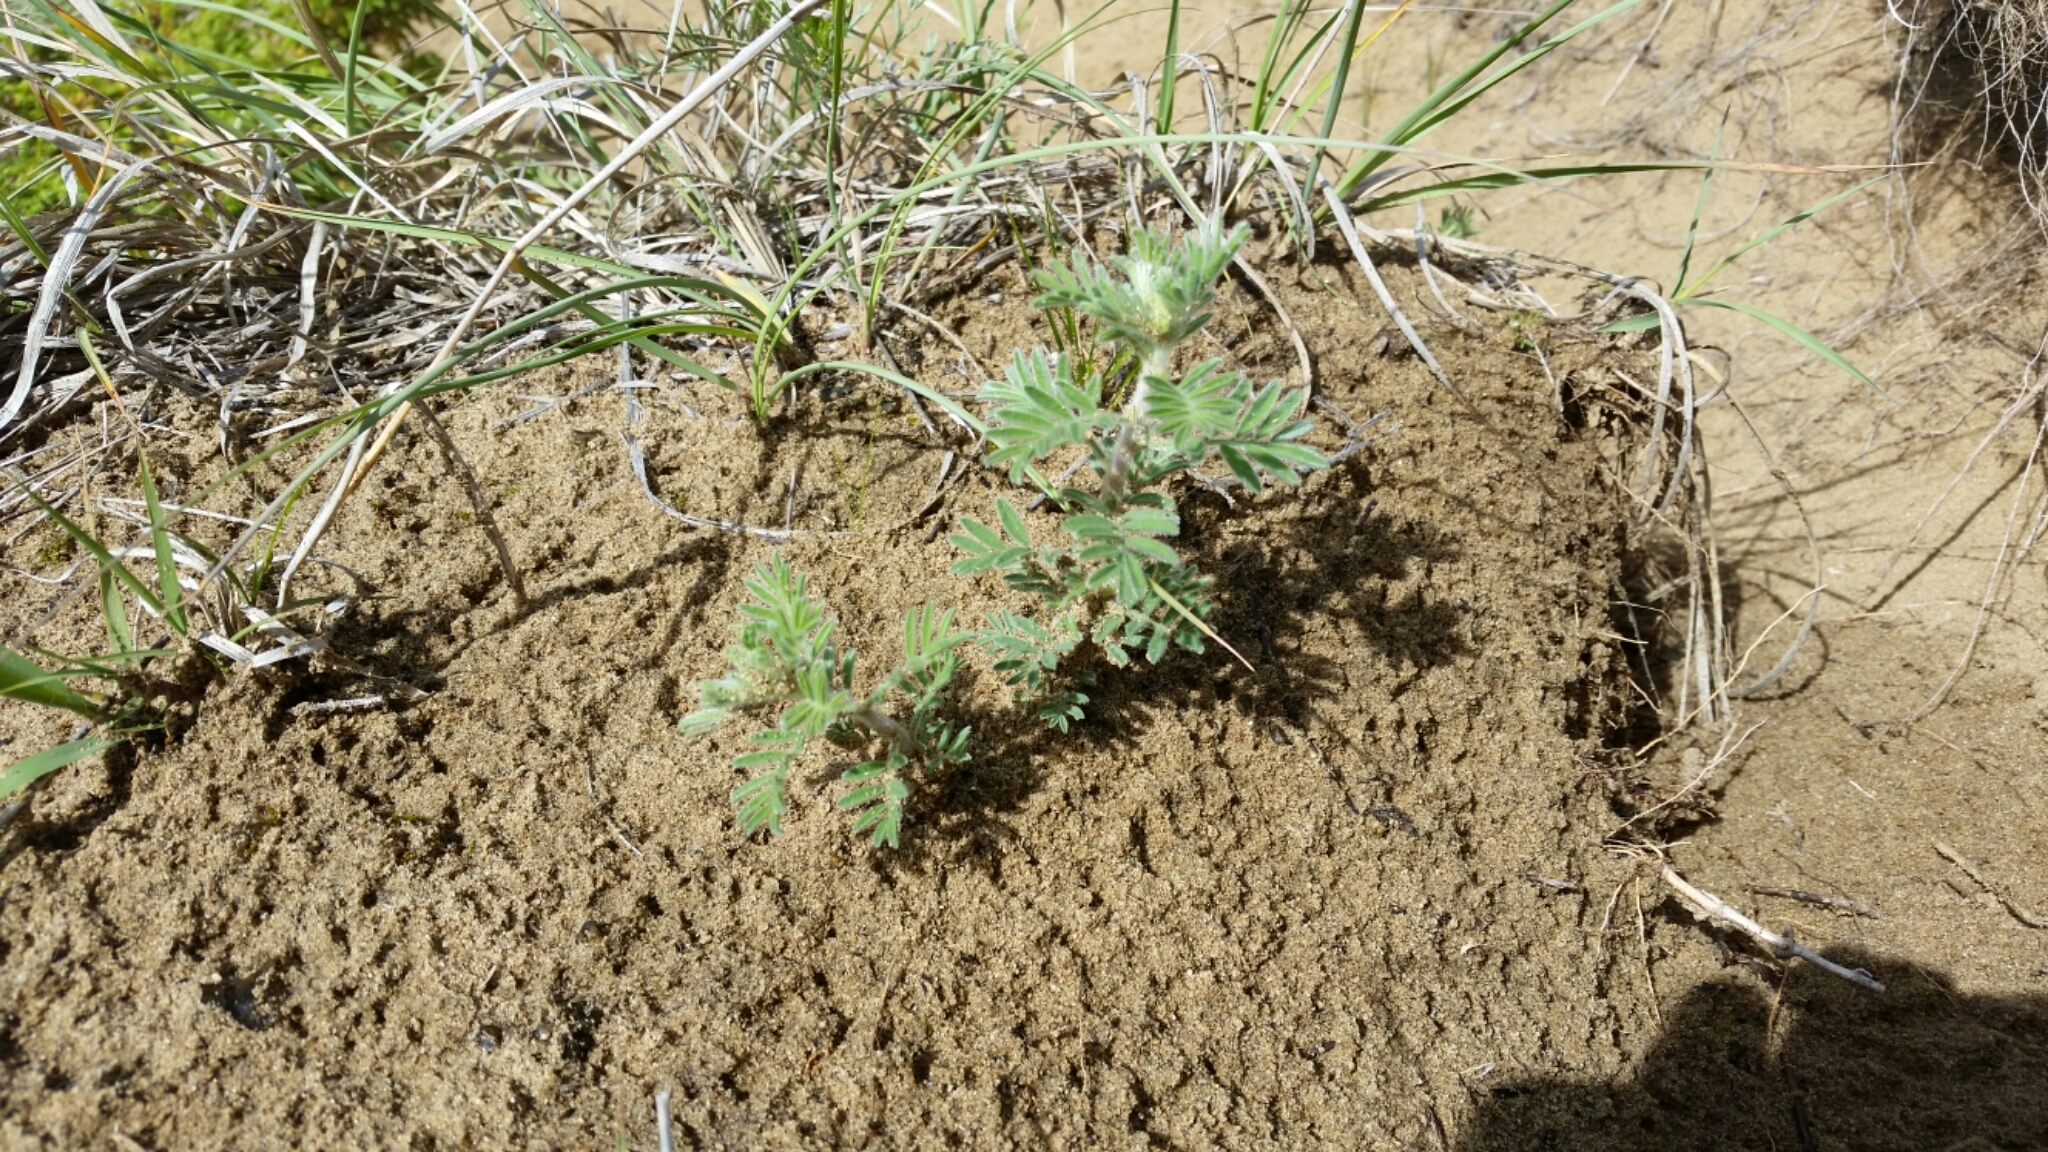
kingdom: Plantae
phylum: Tracheophyta
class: Magnoliopsida
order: Fabales
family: Fabaceae
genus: Dalea
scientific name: Dalea villosa
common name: Silky prairie-clover
